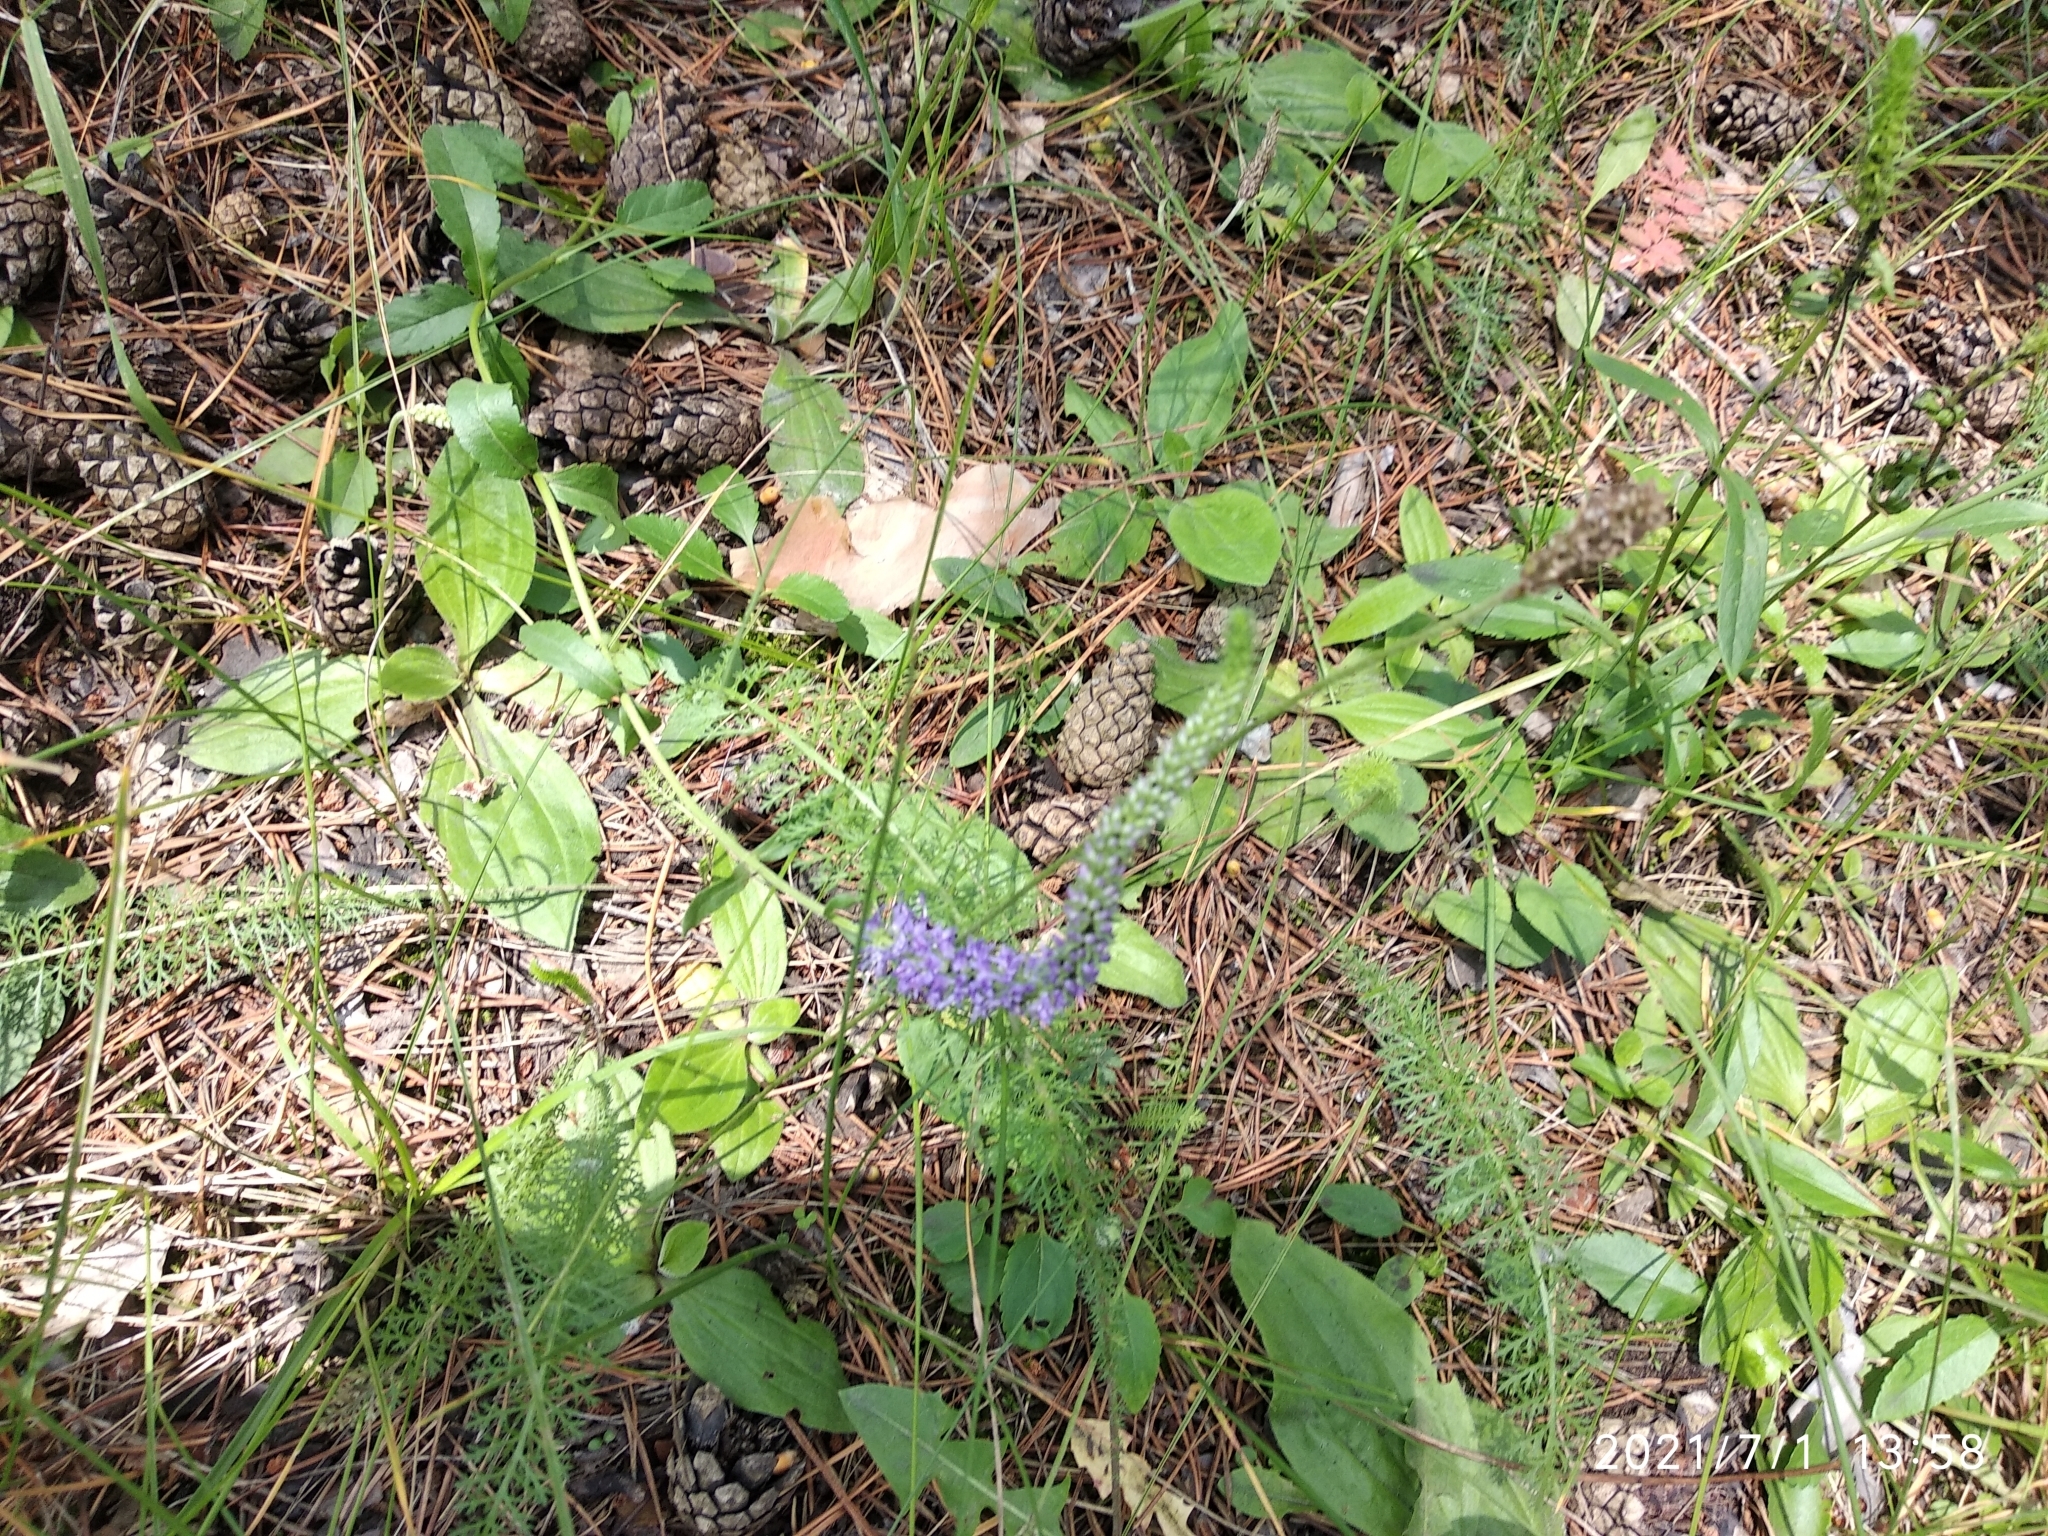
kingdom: Plantae
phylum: Tracheophyta
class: Magnoliopsida
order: Lamiales
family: Plantaginaceae
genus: Veronica
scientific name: Veronica spicata
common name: Spiked speedwell
